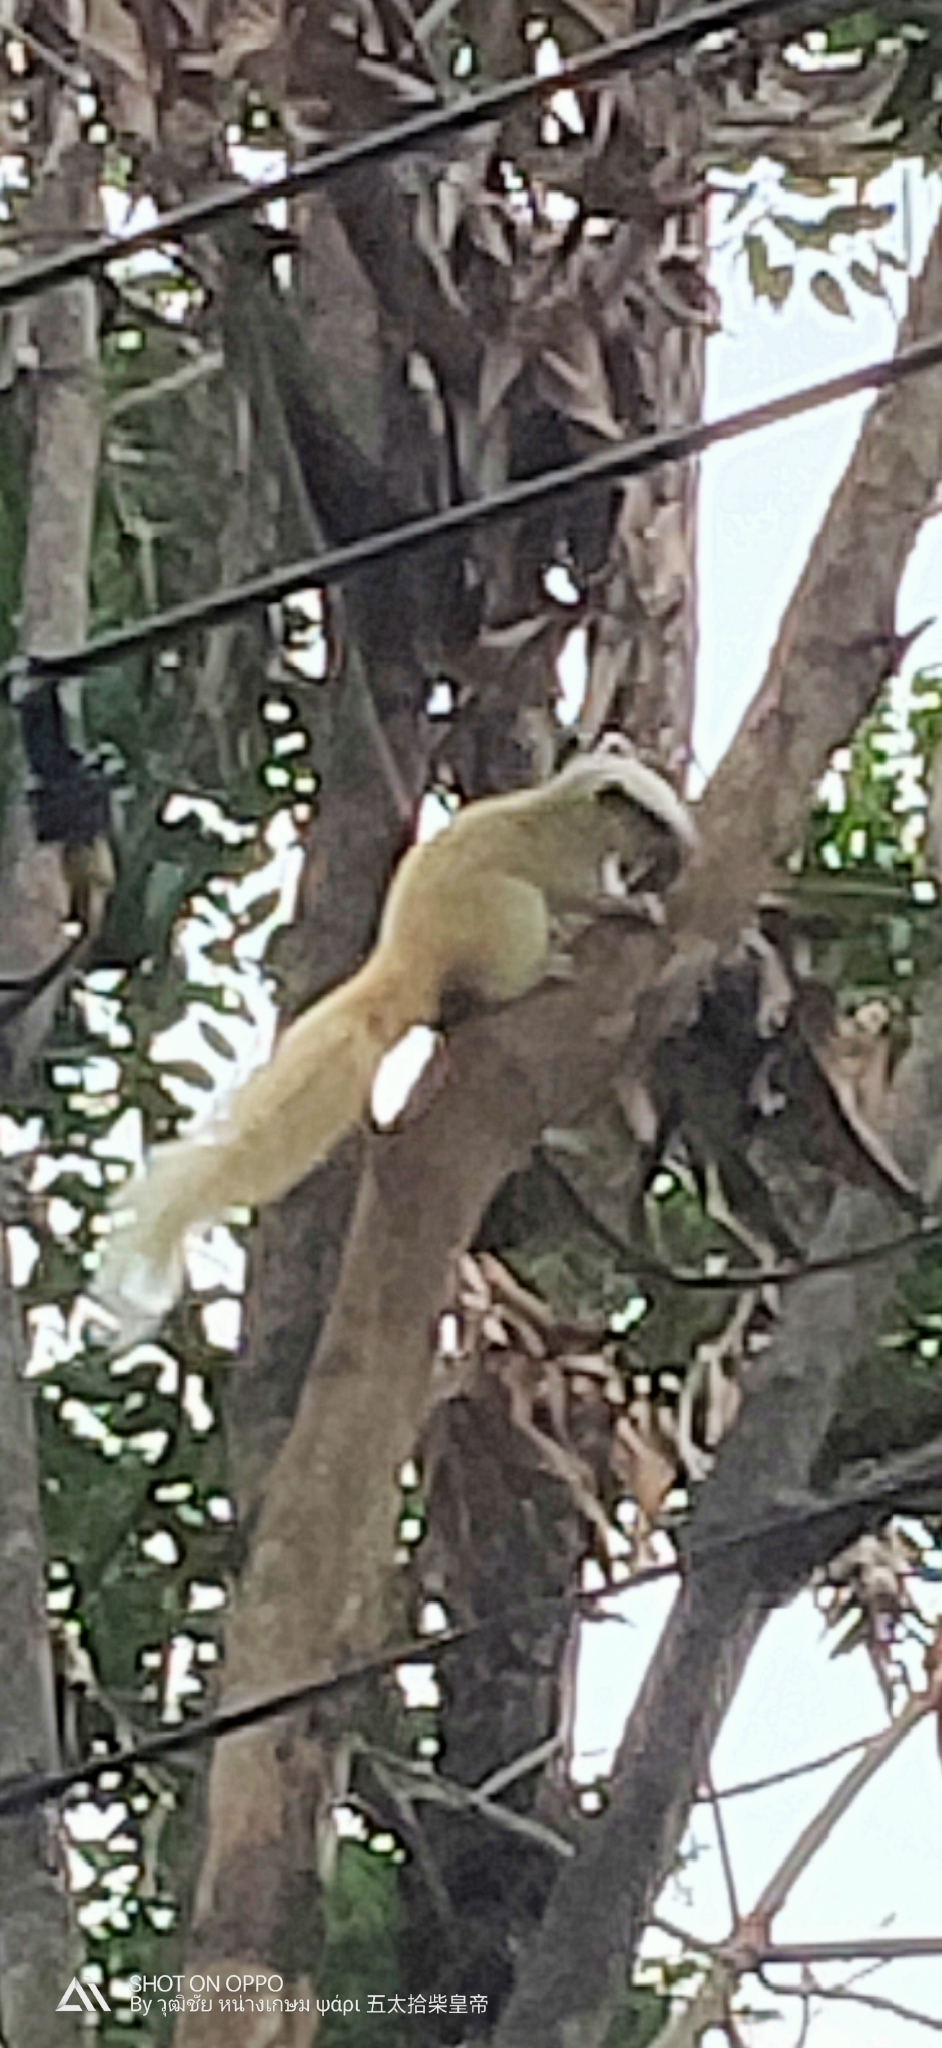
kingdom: Animalia
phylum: Chordata
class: Mammalia
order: Rodentia
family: Sciuridae
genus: Callosciurus
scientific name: Callosciurus finlaysonii
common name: Finlayson's squirrel
